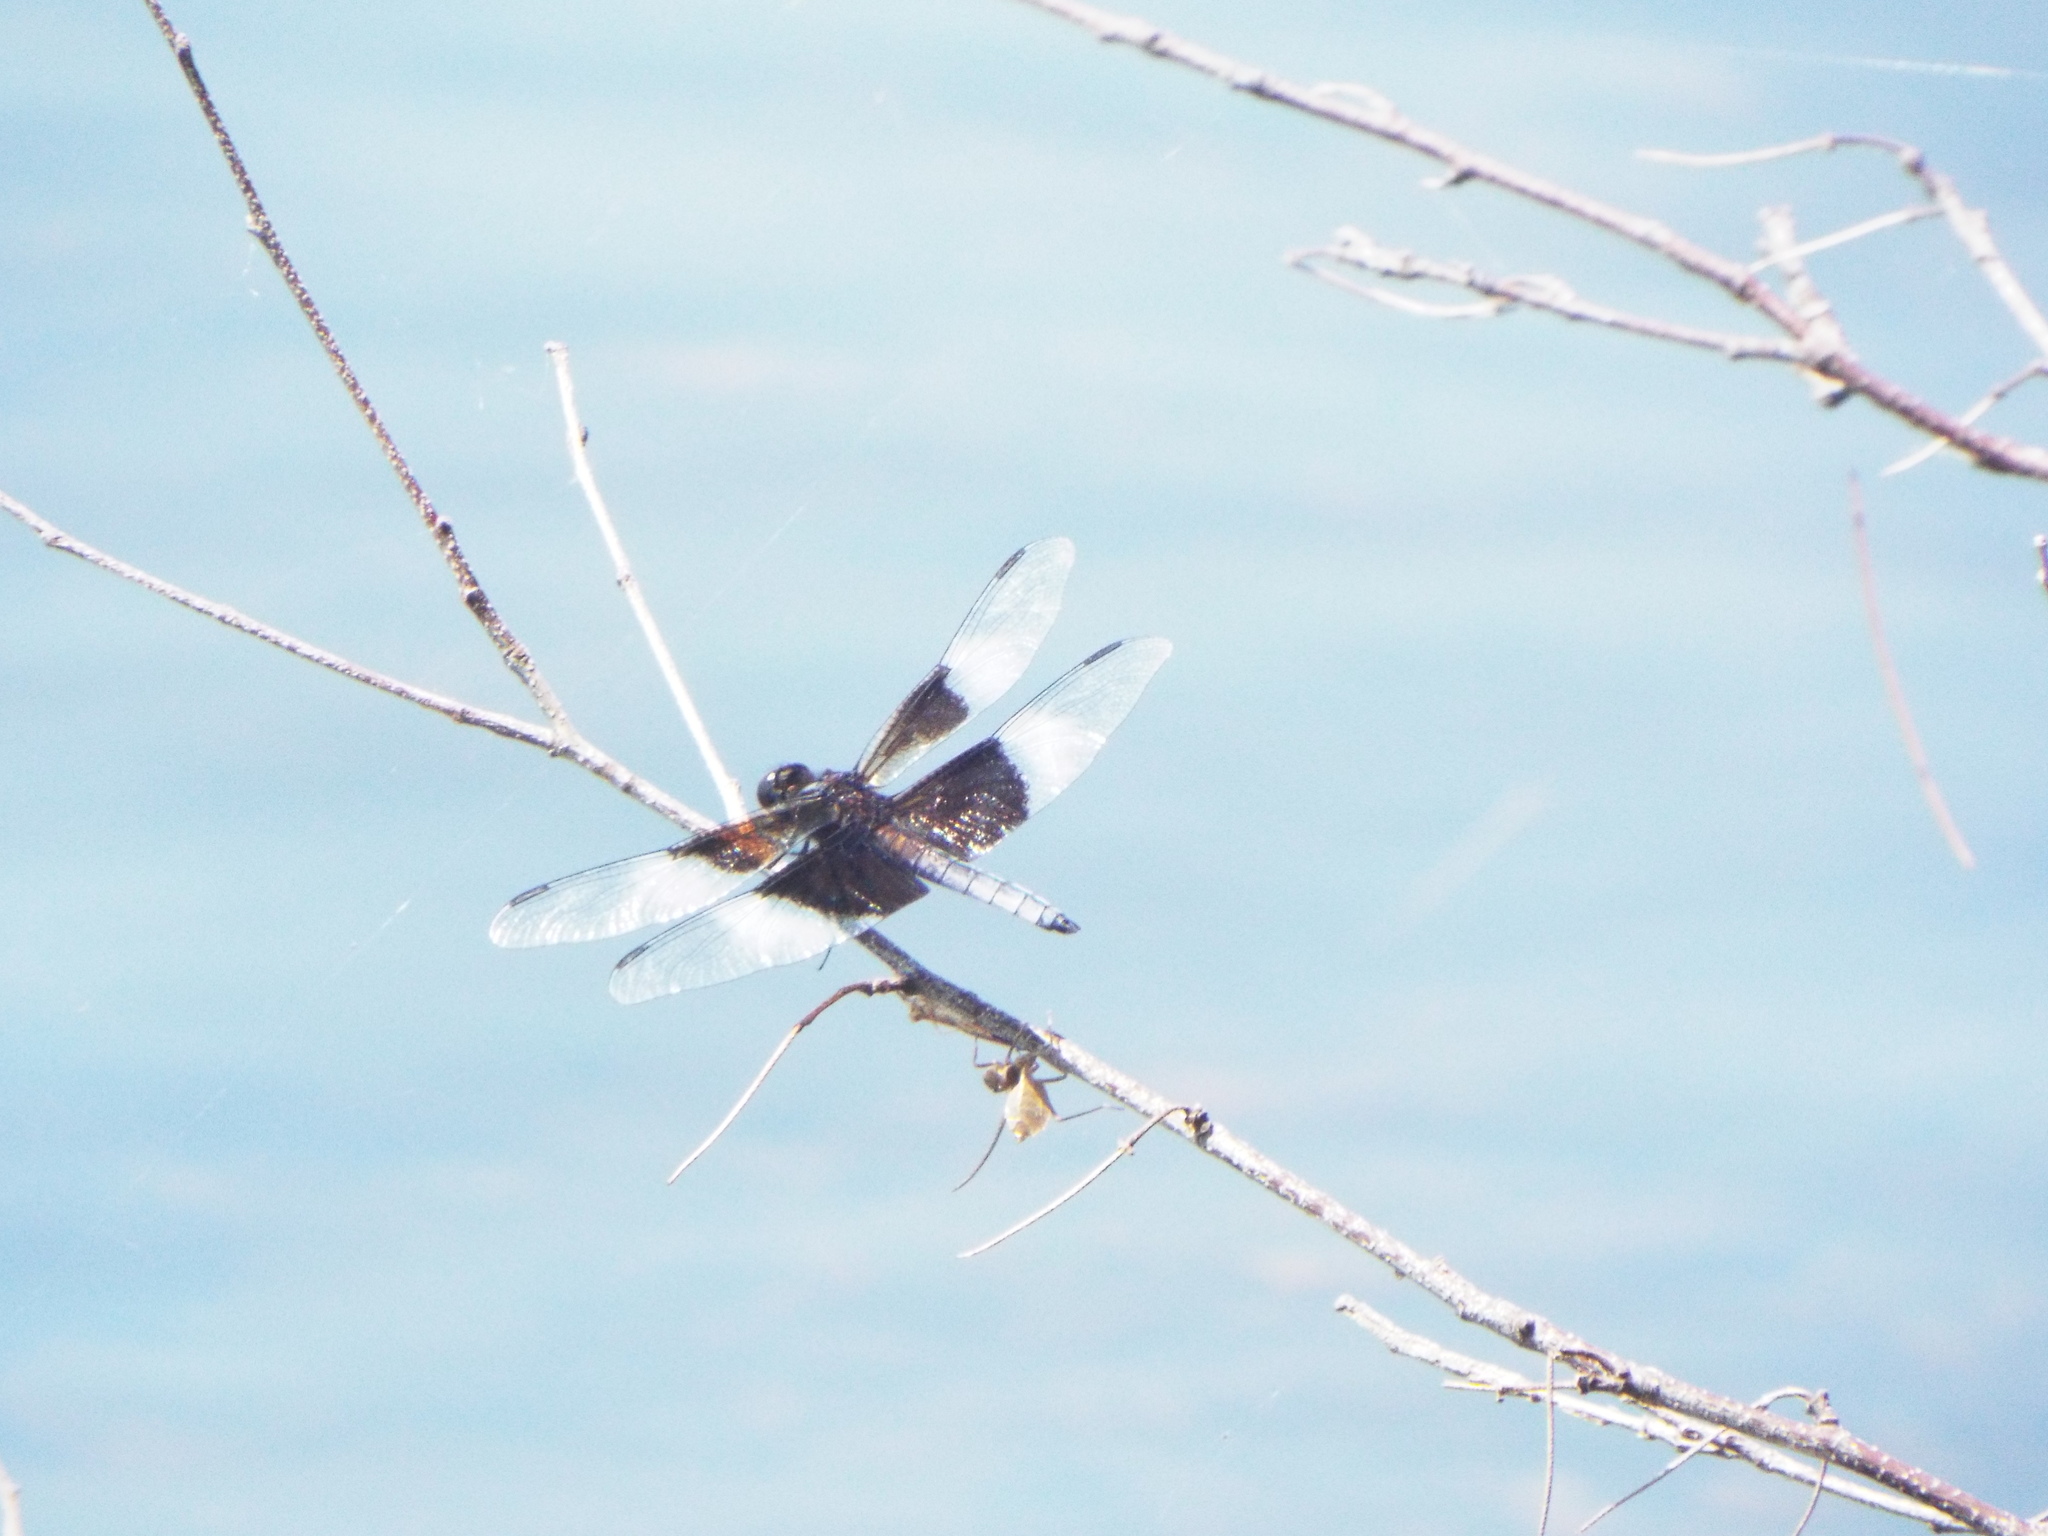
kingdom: Animalia
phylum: Arthropoda
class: Insecta
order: Odonata
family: Libellulidae
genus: Libellula
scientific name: Libellula luctuosa
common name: Widow skimmer
